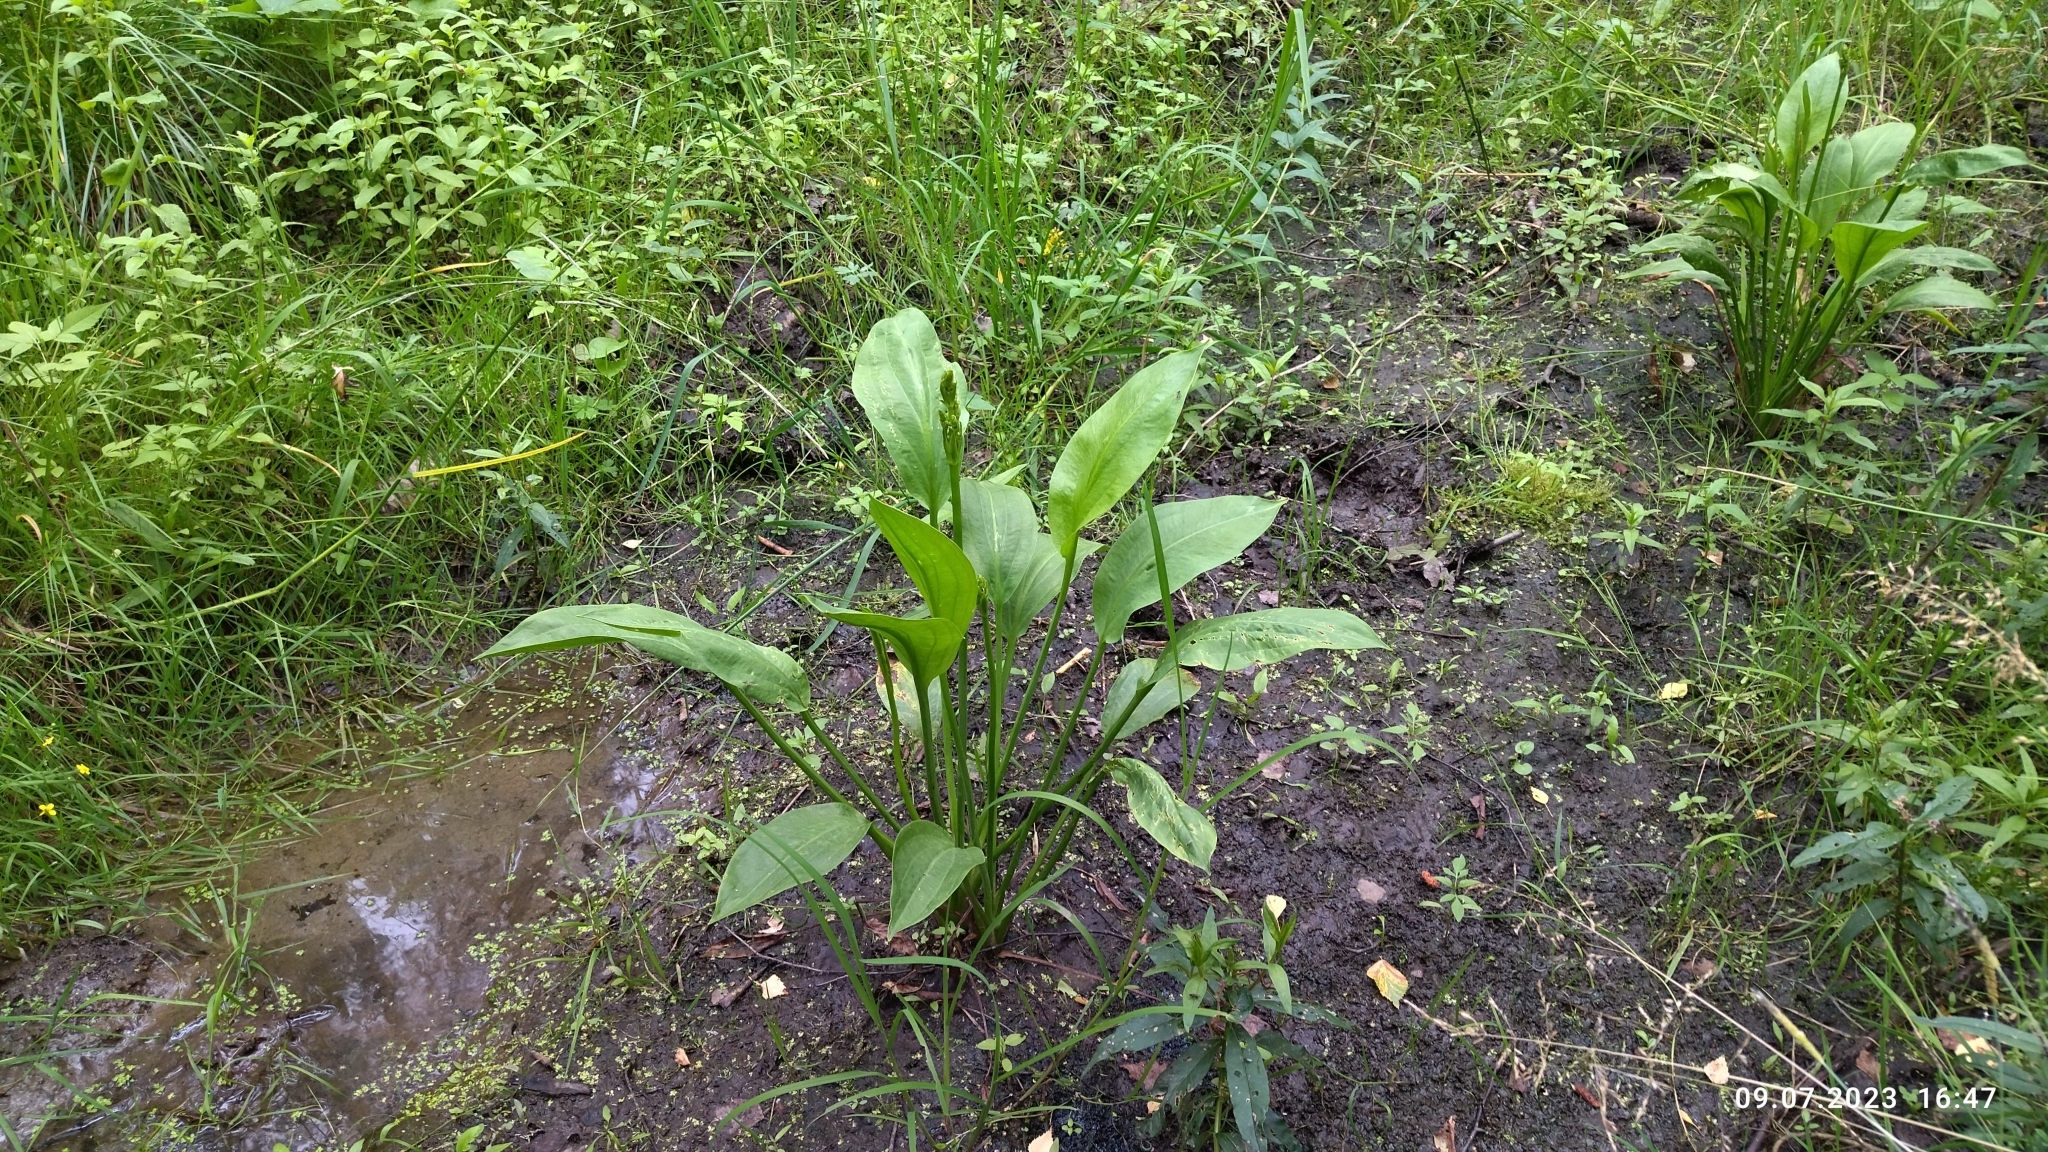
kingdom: Plantae
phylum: Tracheophyta
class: Liliopsida
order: Alismatales
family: Alismataceae
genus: Alisma
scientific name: Alisma plantago-aquatica
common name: Water-plantain
